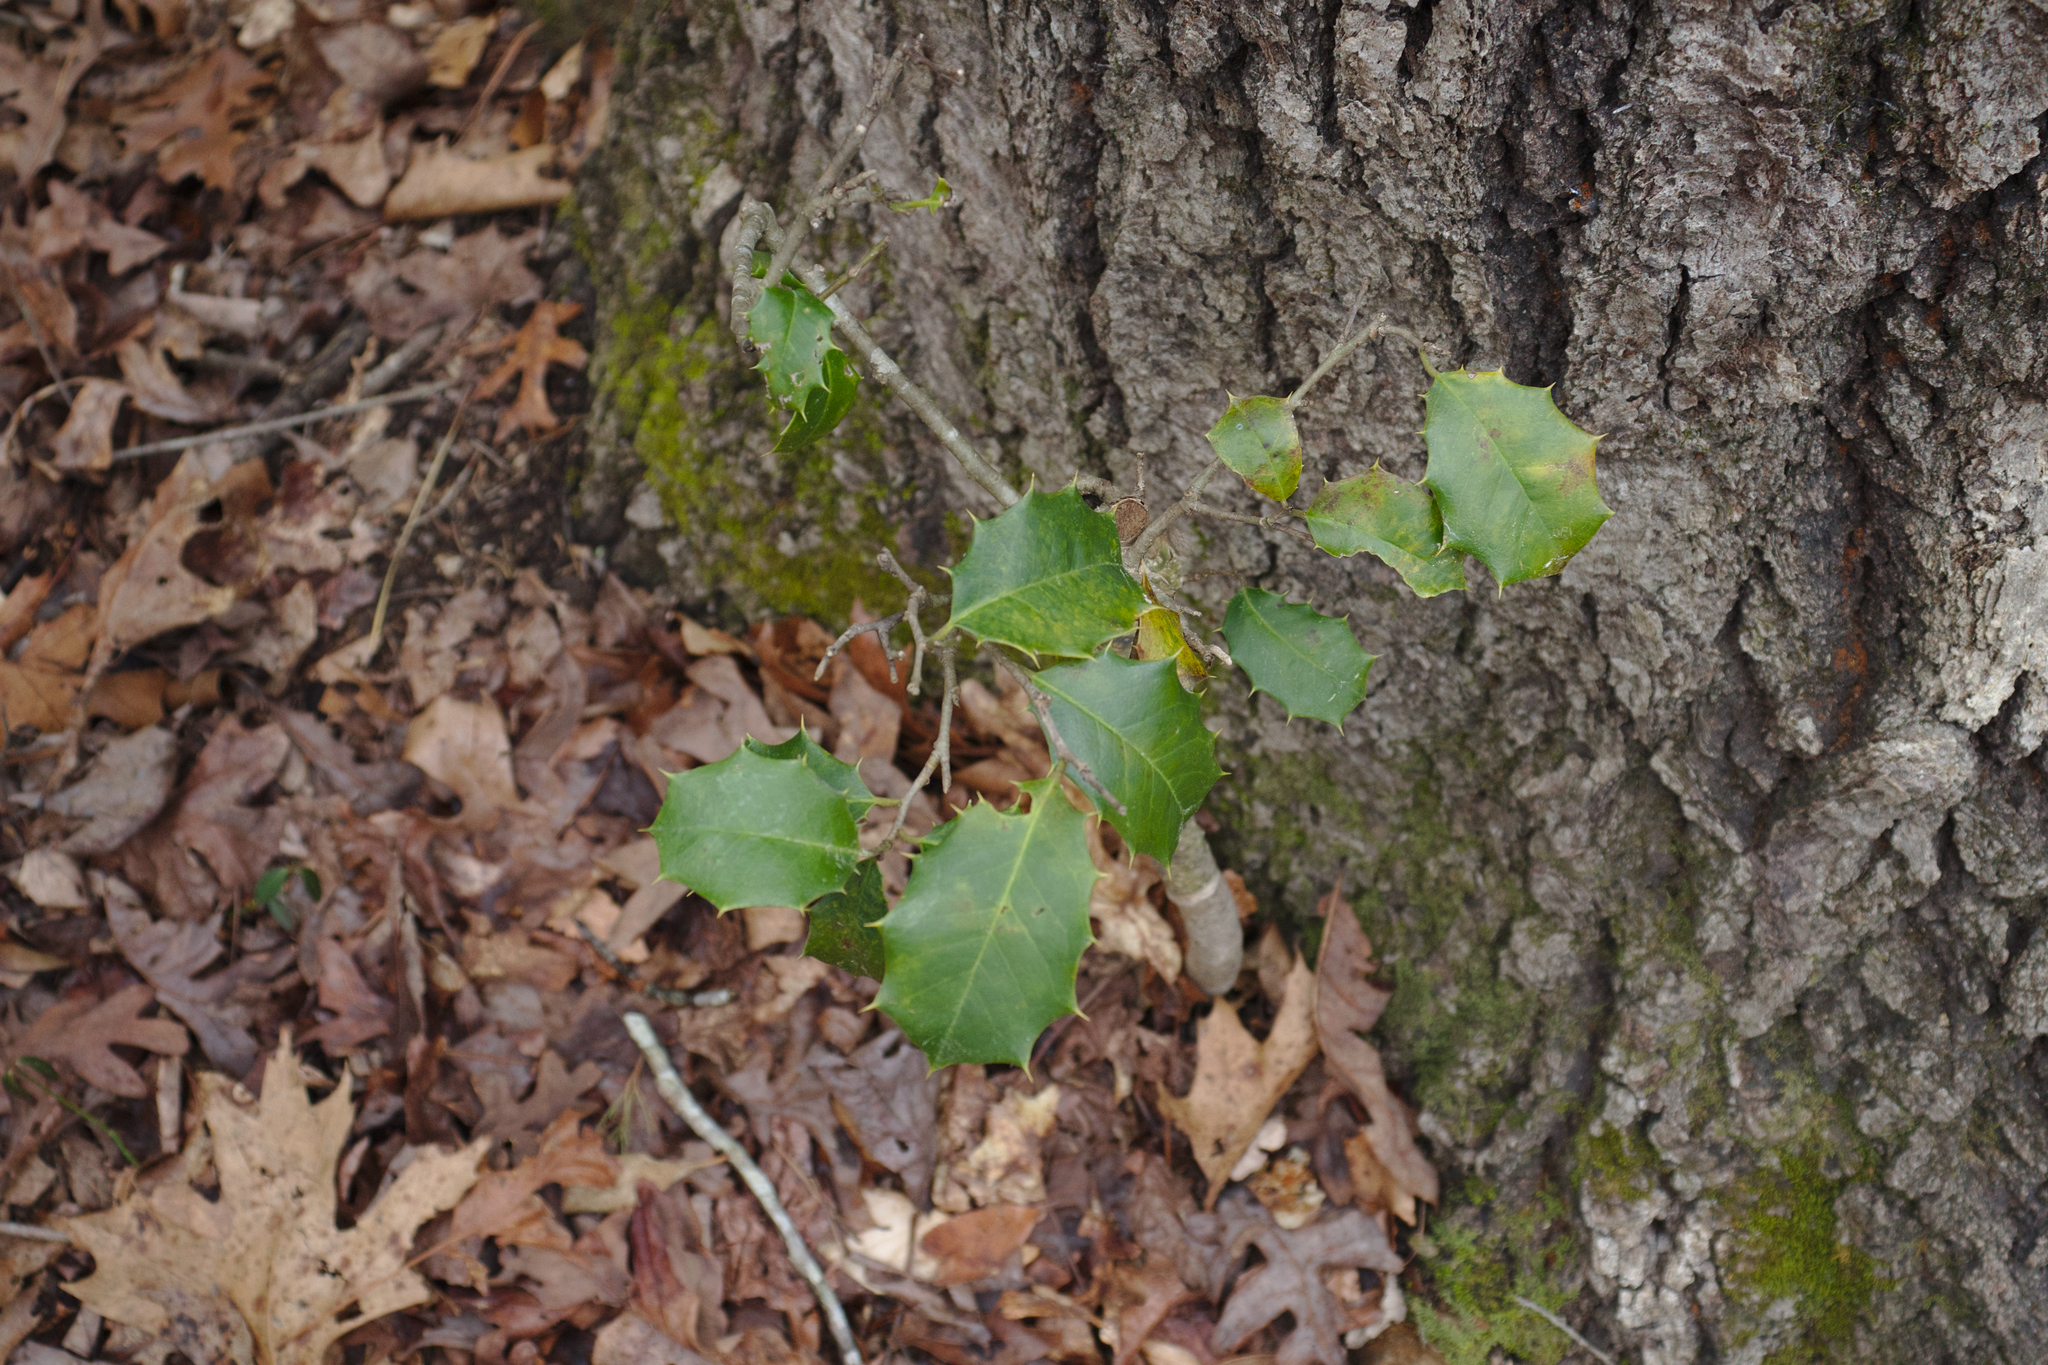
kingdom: Plantae
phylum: Tracheophyta
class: Magnoliopsida
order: Aquifoliales
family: Aquifoliaceae
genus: Ilex
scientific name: Ilex opaca
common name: American holly
